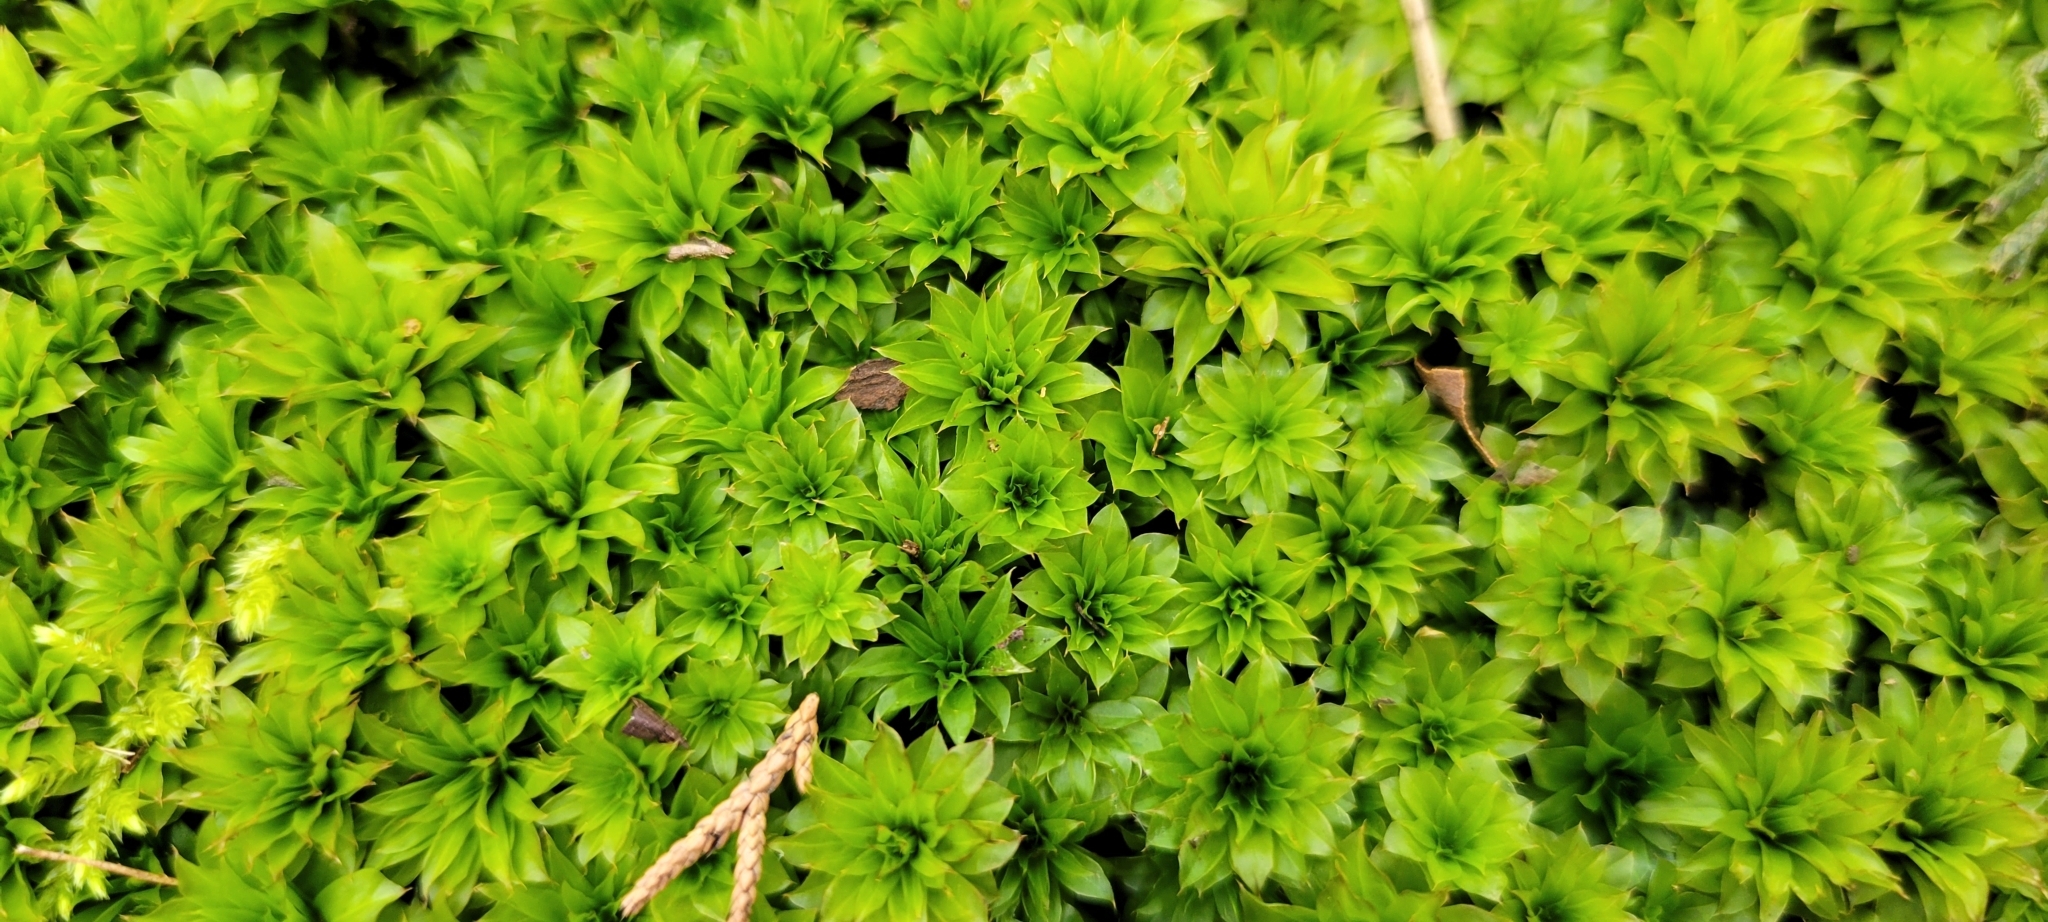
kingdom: Plantae
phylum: Bryophyta
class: Bryopsida
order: Bryales
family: Bryaceae
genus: Rhodobryum
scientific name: Rhodobryum ontariense
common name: Ontario rhodobryum moss
